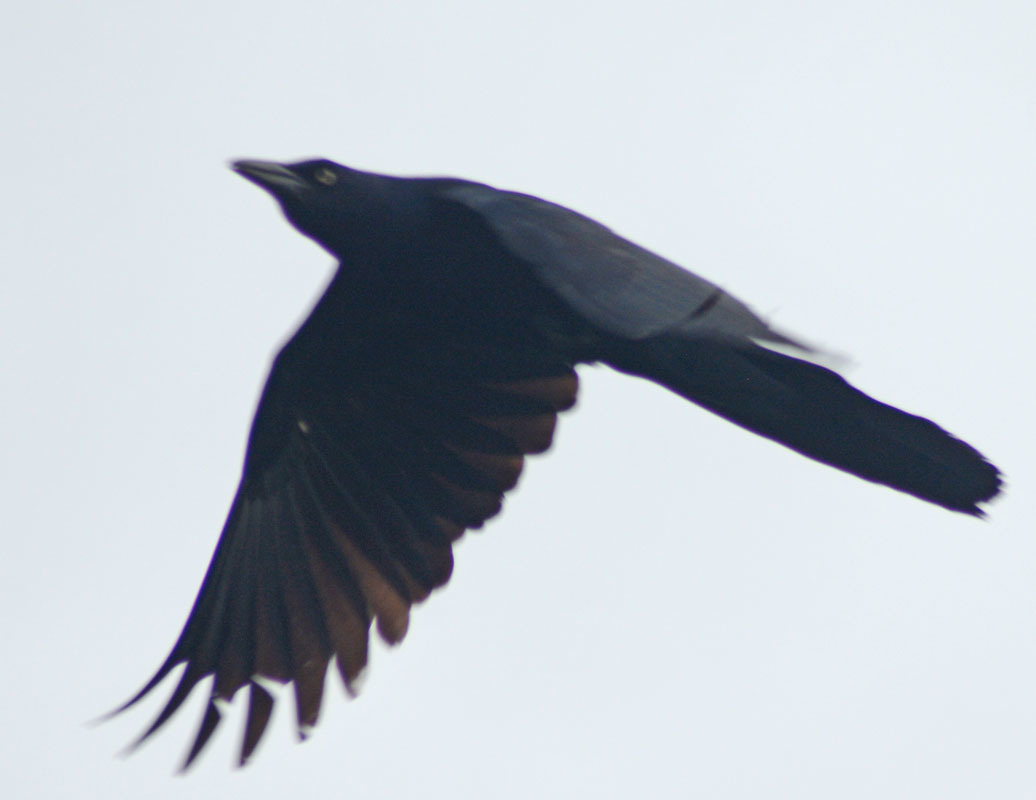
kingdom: Animalia
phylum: Chordata
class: Aves
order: Passeriformes
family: Icteridae
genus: Quiscalus
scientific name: Quiscalus mexicanus
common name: Great-tailed grackle
